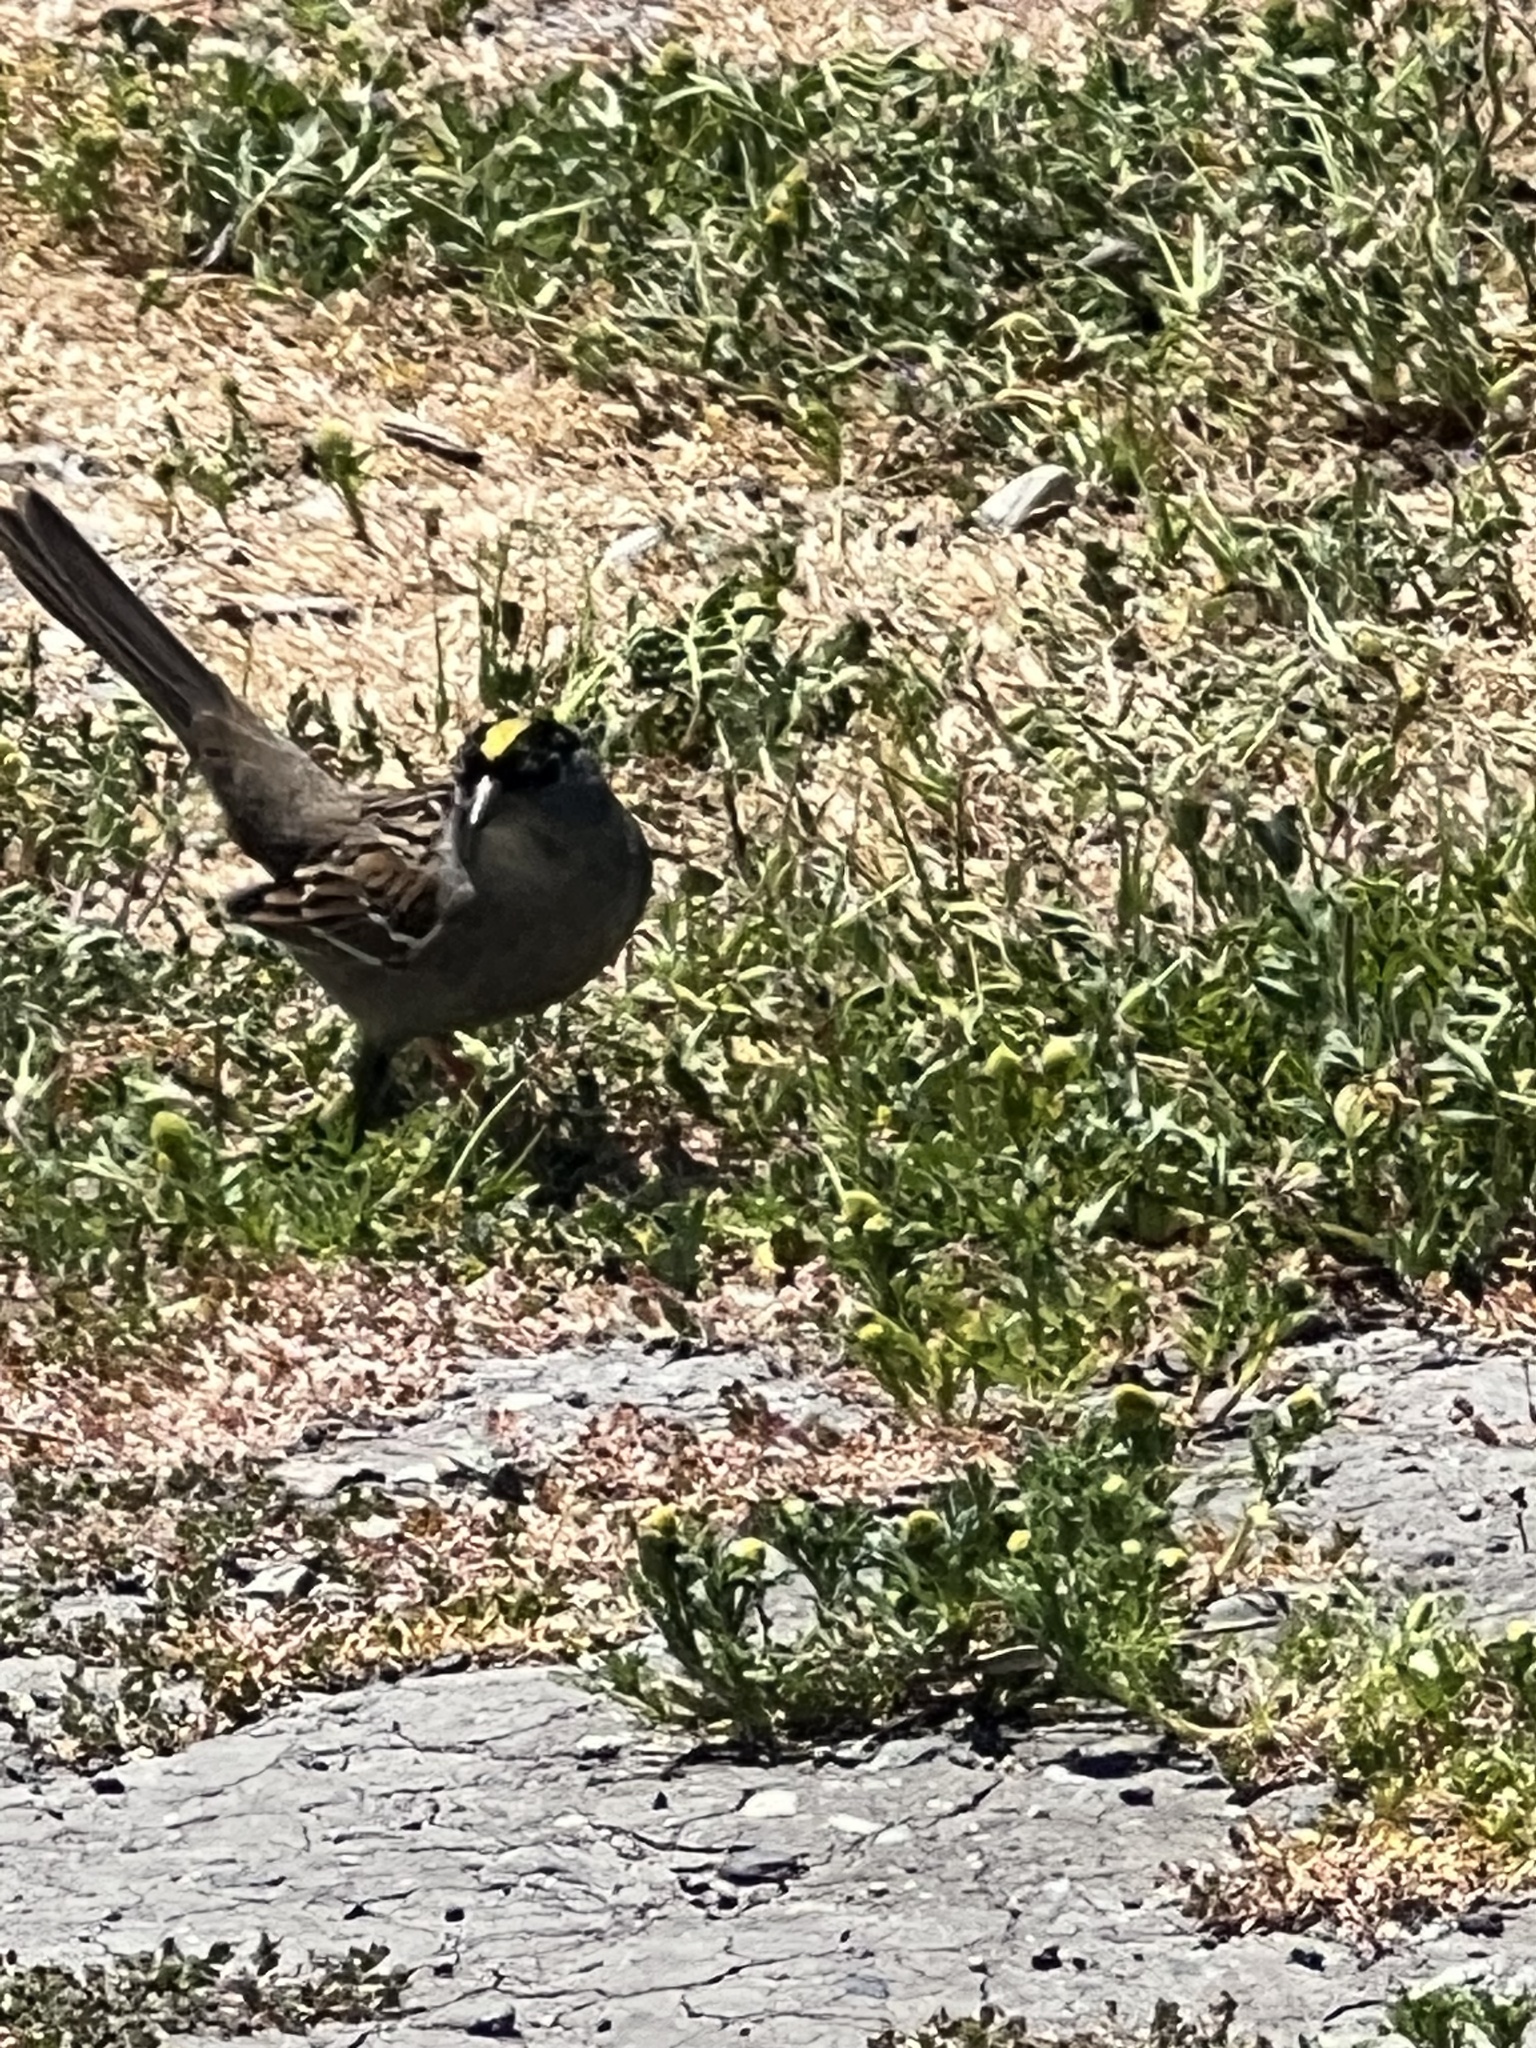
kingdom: Animalia
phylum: Chordata
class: Aves
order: Passeriformes
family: Passerellidae
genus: Zonotrichia
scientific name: Zonotrichia atricapilla
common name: Golden-crowned sparrow
